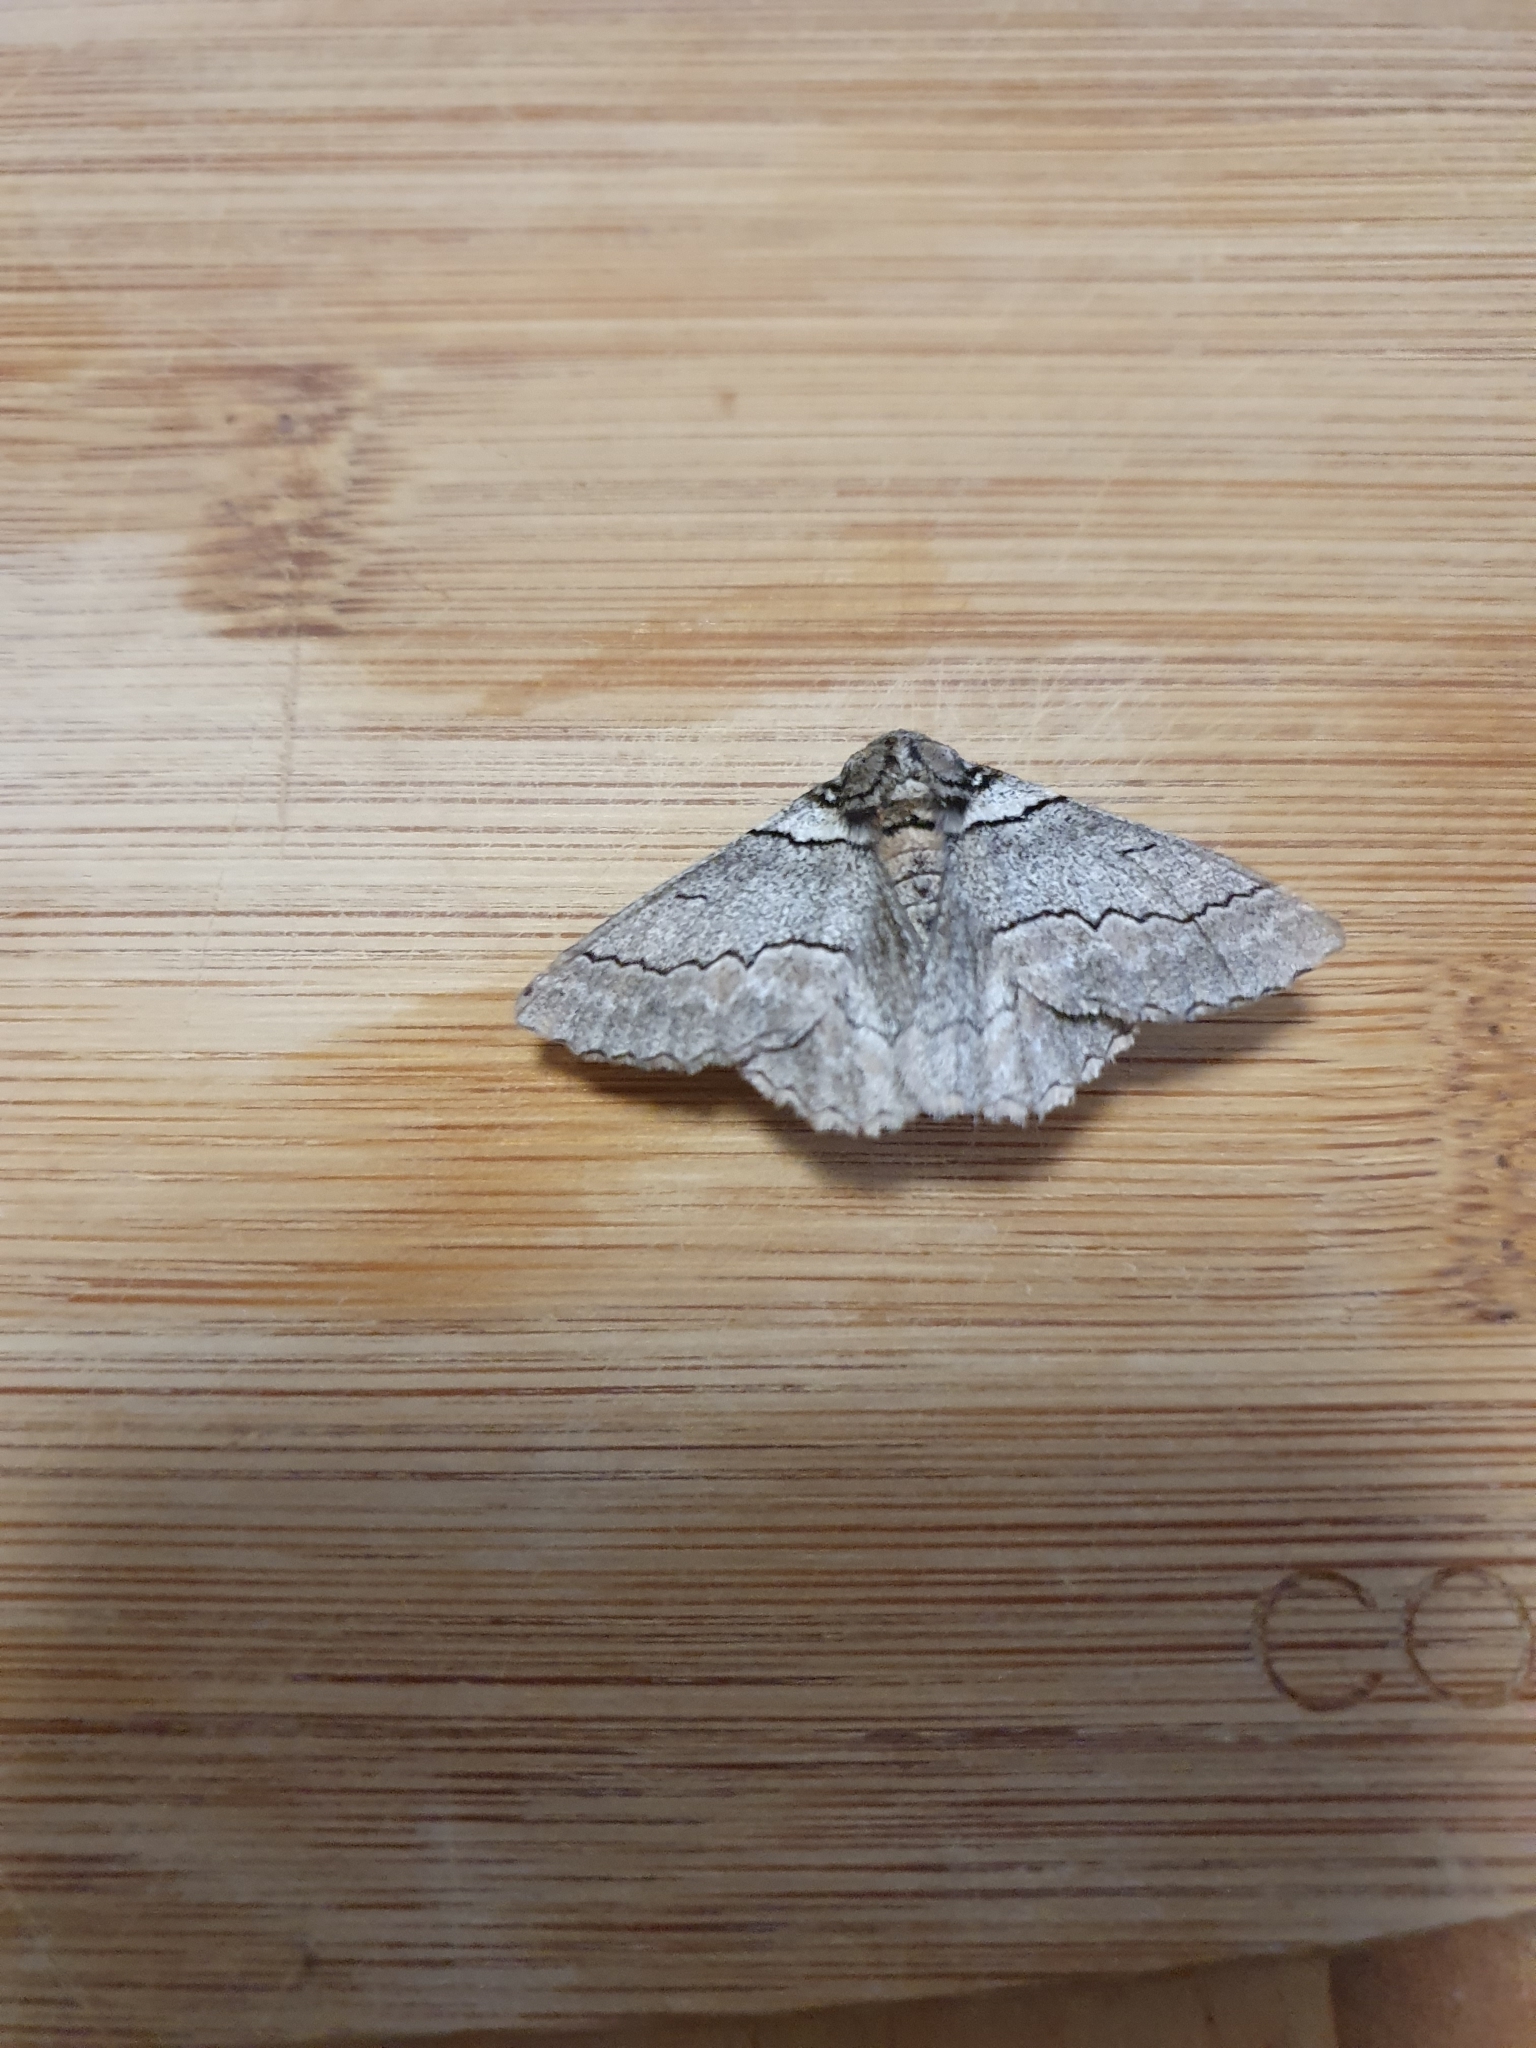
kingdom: Animalia
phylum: Arthropoda
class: Insecta
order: Lepidoptera
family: Geometridae
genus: Hypobapta
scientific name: Hypobapta tachyhalotaria
